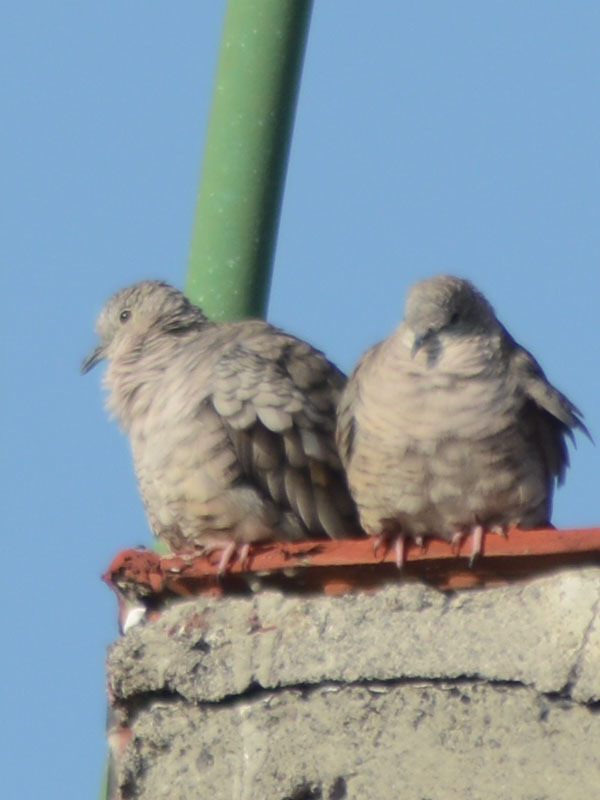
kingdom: Animalia
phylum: Chordata
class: Aves
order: Columbiformes
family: Columbidae
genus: Columbina
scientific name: Columbina inca
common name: Inca dove
